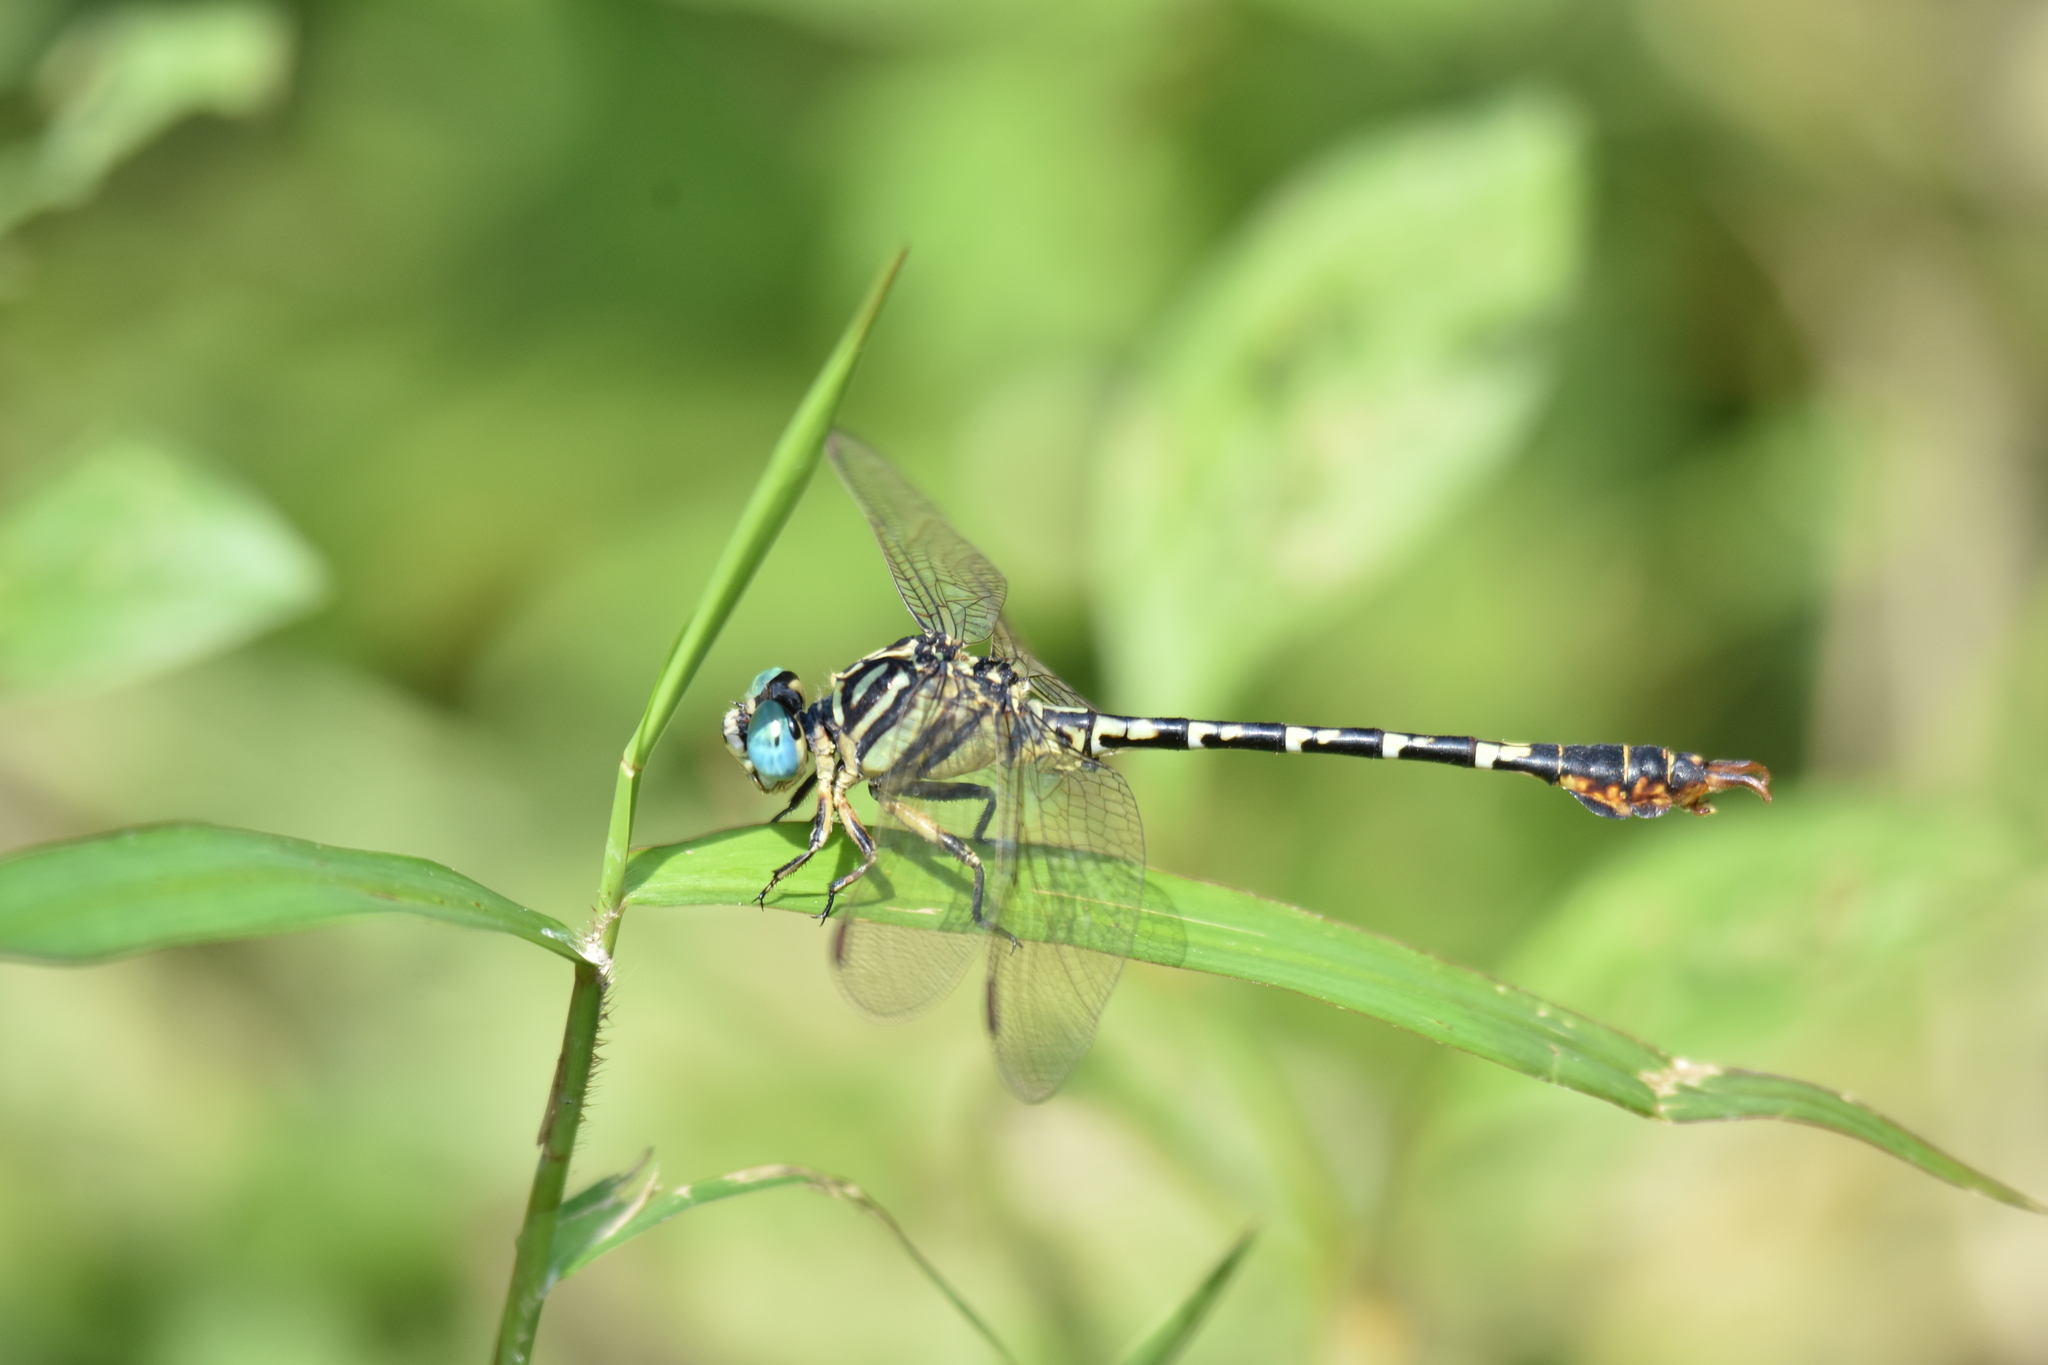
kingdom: Animalia
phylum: Arthropoda
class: Insecta
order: Odonata
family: Gomphidae
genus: Paragomphus
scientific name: Paragomphus lineatus
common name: Lined hooktail
